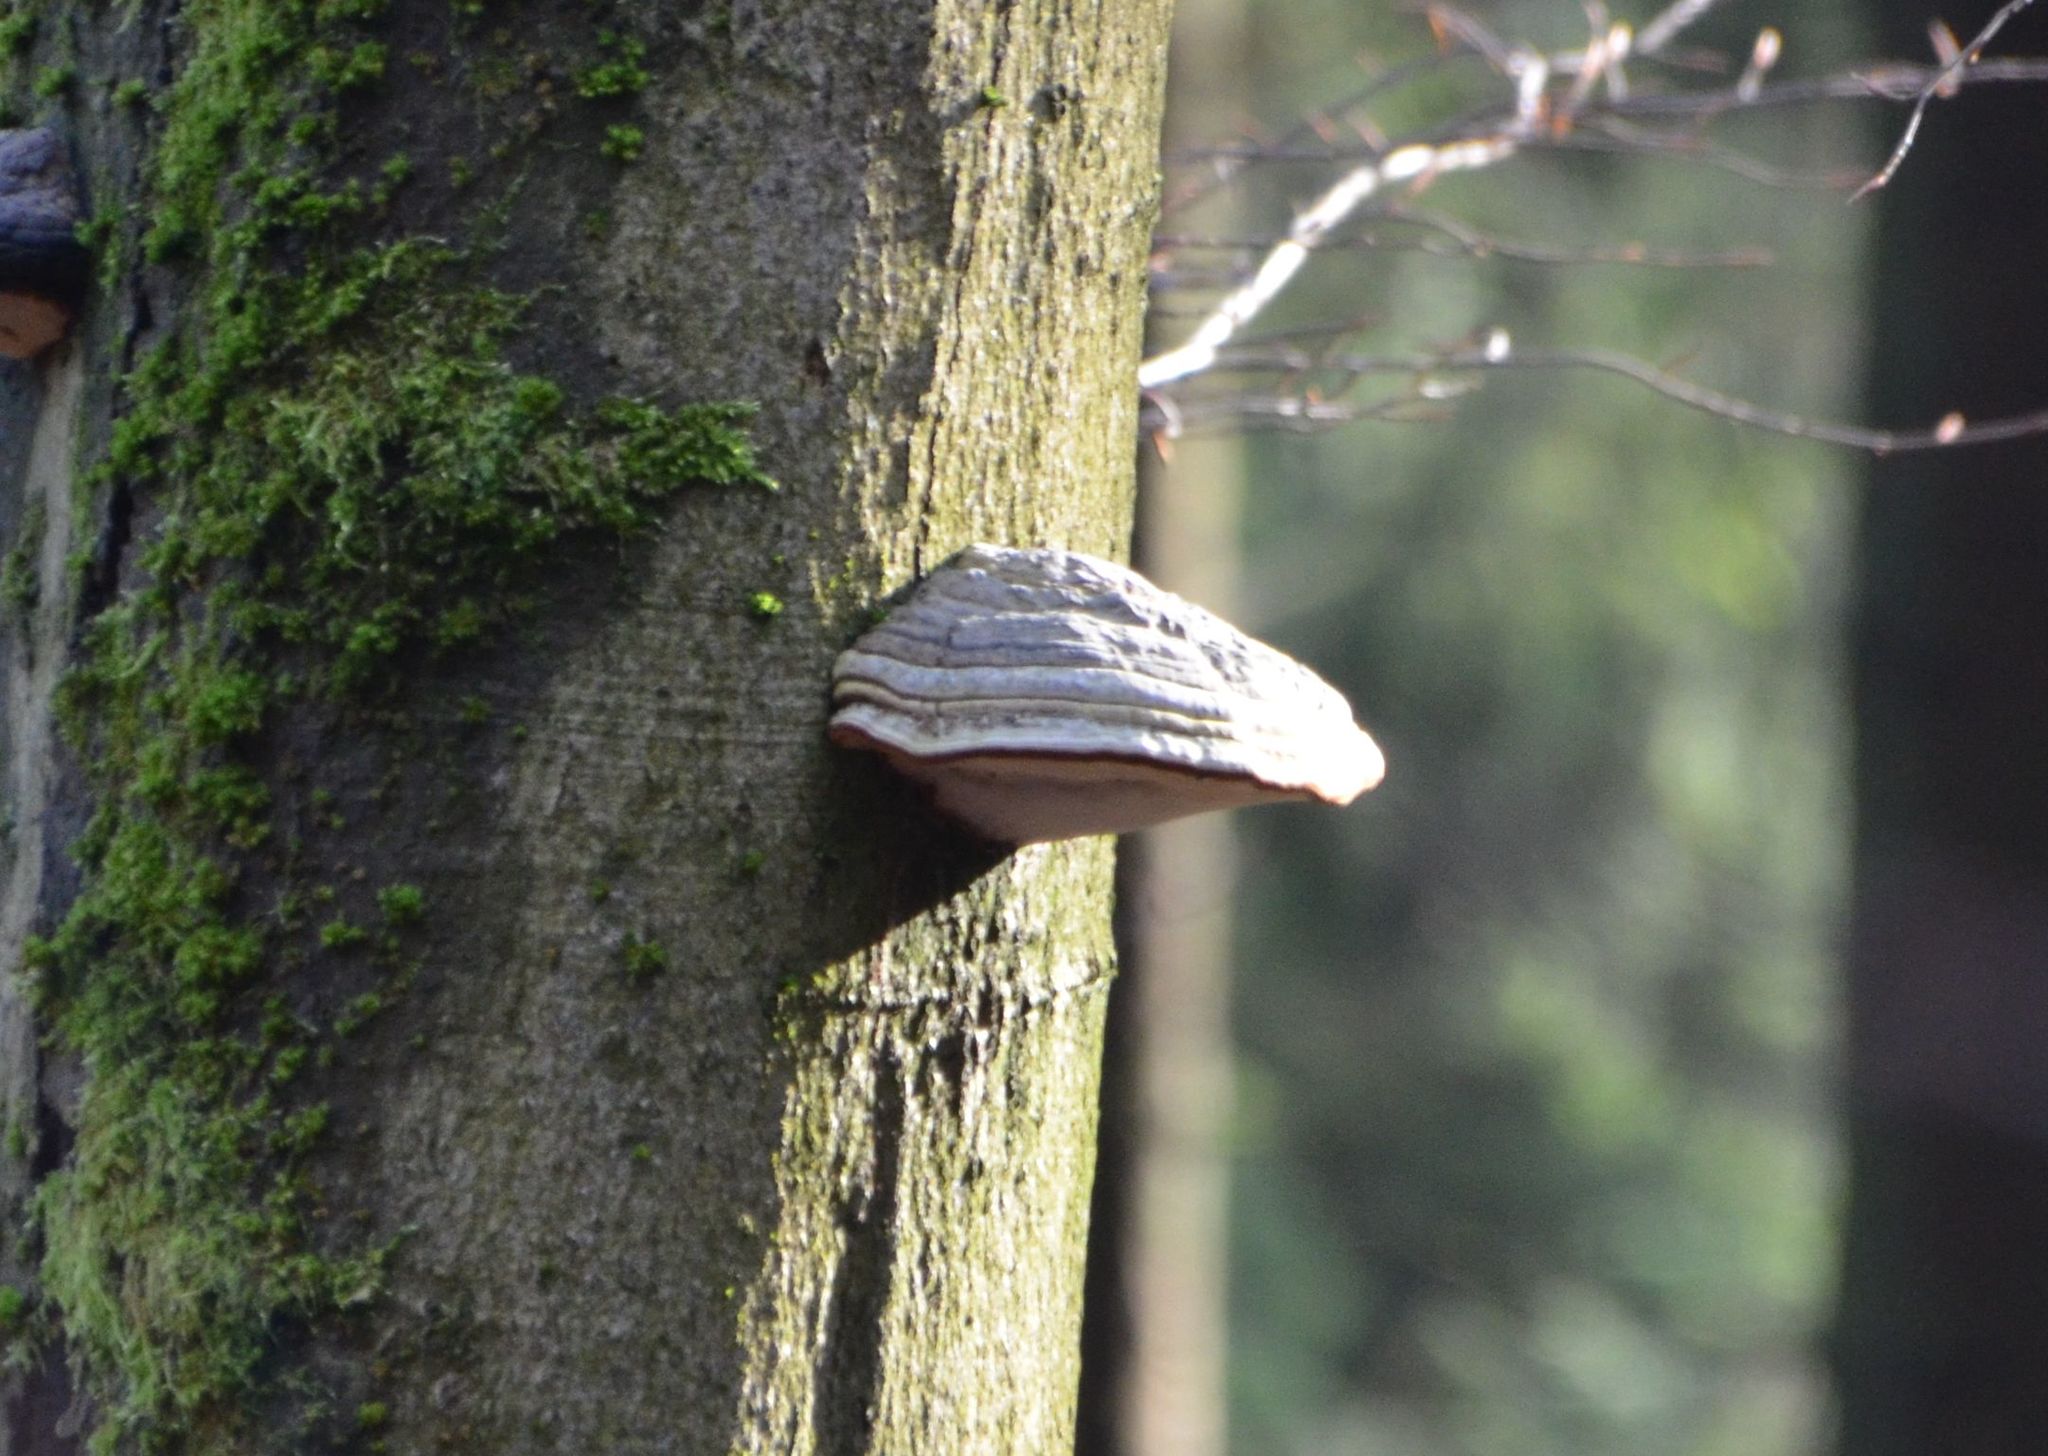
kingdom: Fungi
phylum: Basidiomycota
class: Agaricomycetes
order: Polyporales
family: Polyporaceae
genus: Fomes
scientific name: Fomes fomentarius
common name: Hoof fungus
